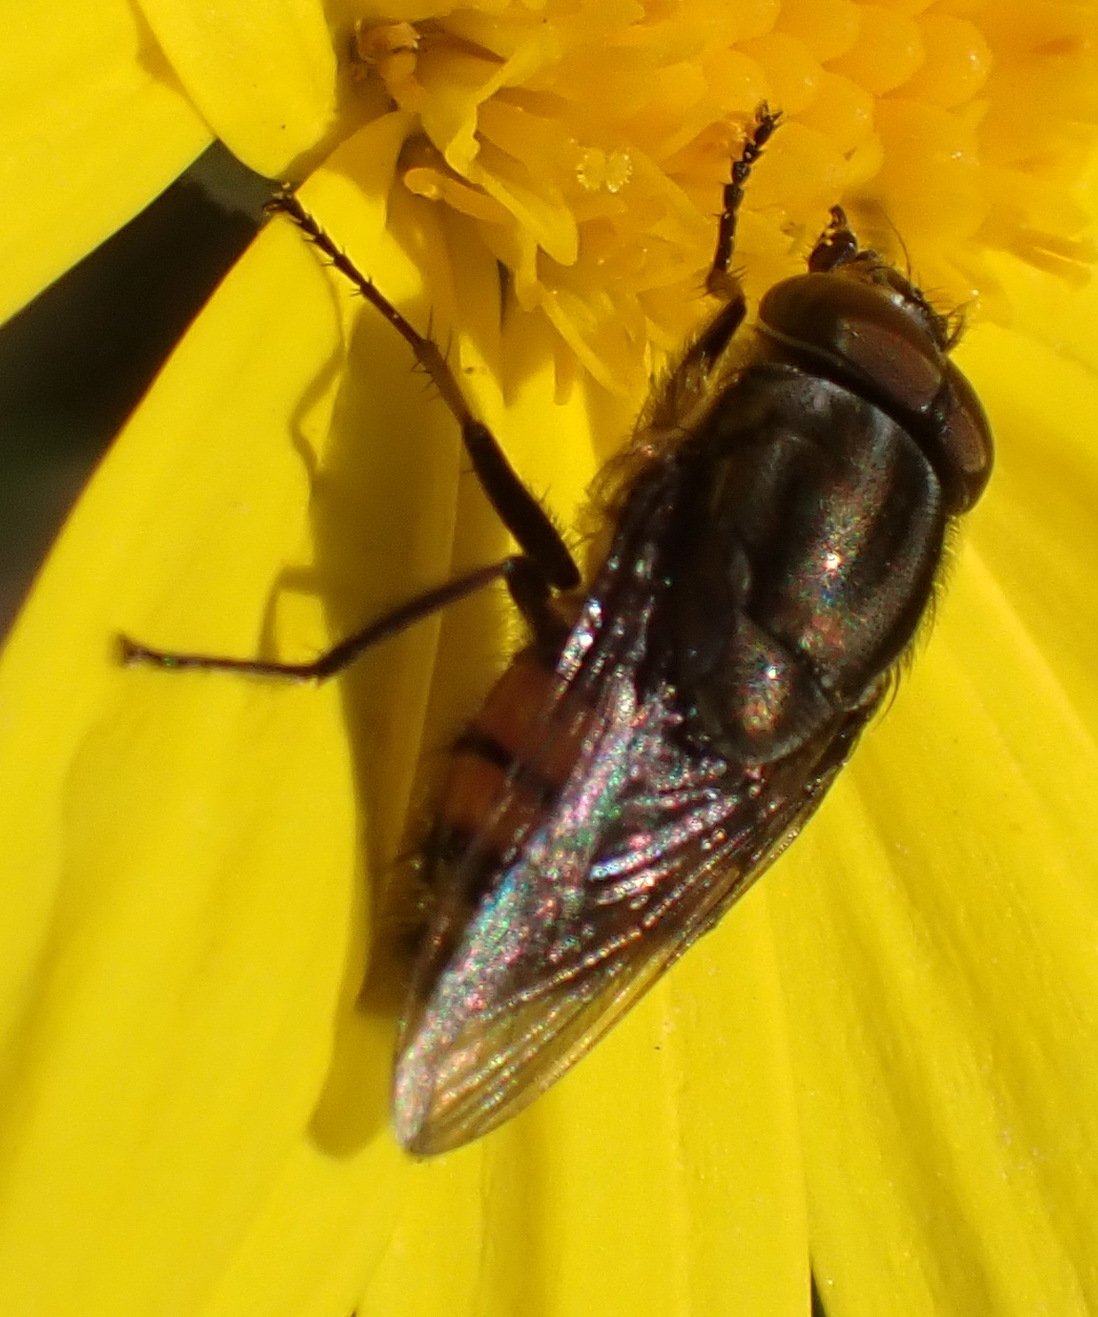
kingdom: Animalia
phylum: Arthropoda
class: Insecta
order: Diptera
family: Calliphoridae
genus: Stomorhina
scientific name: Stomorhina lunata
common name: Locust blowfly
